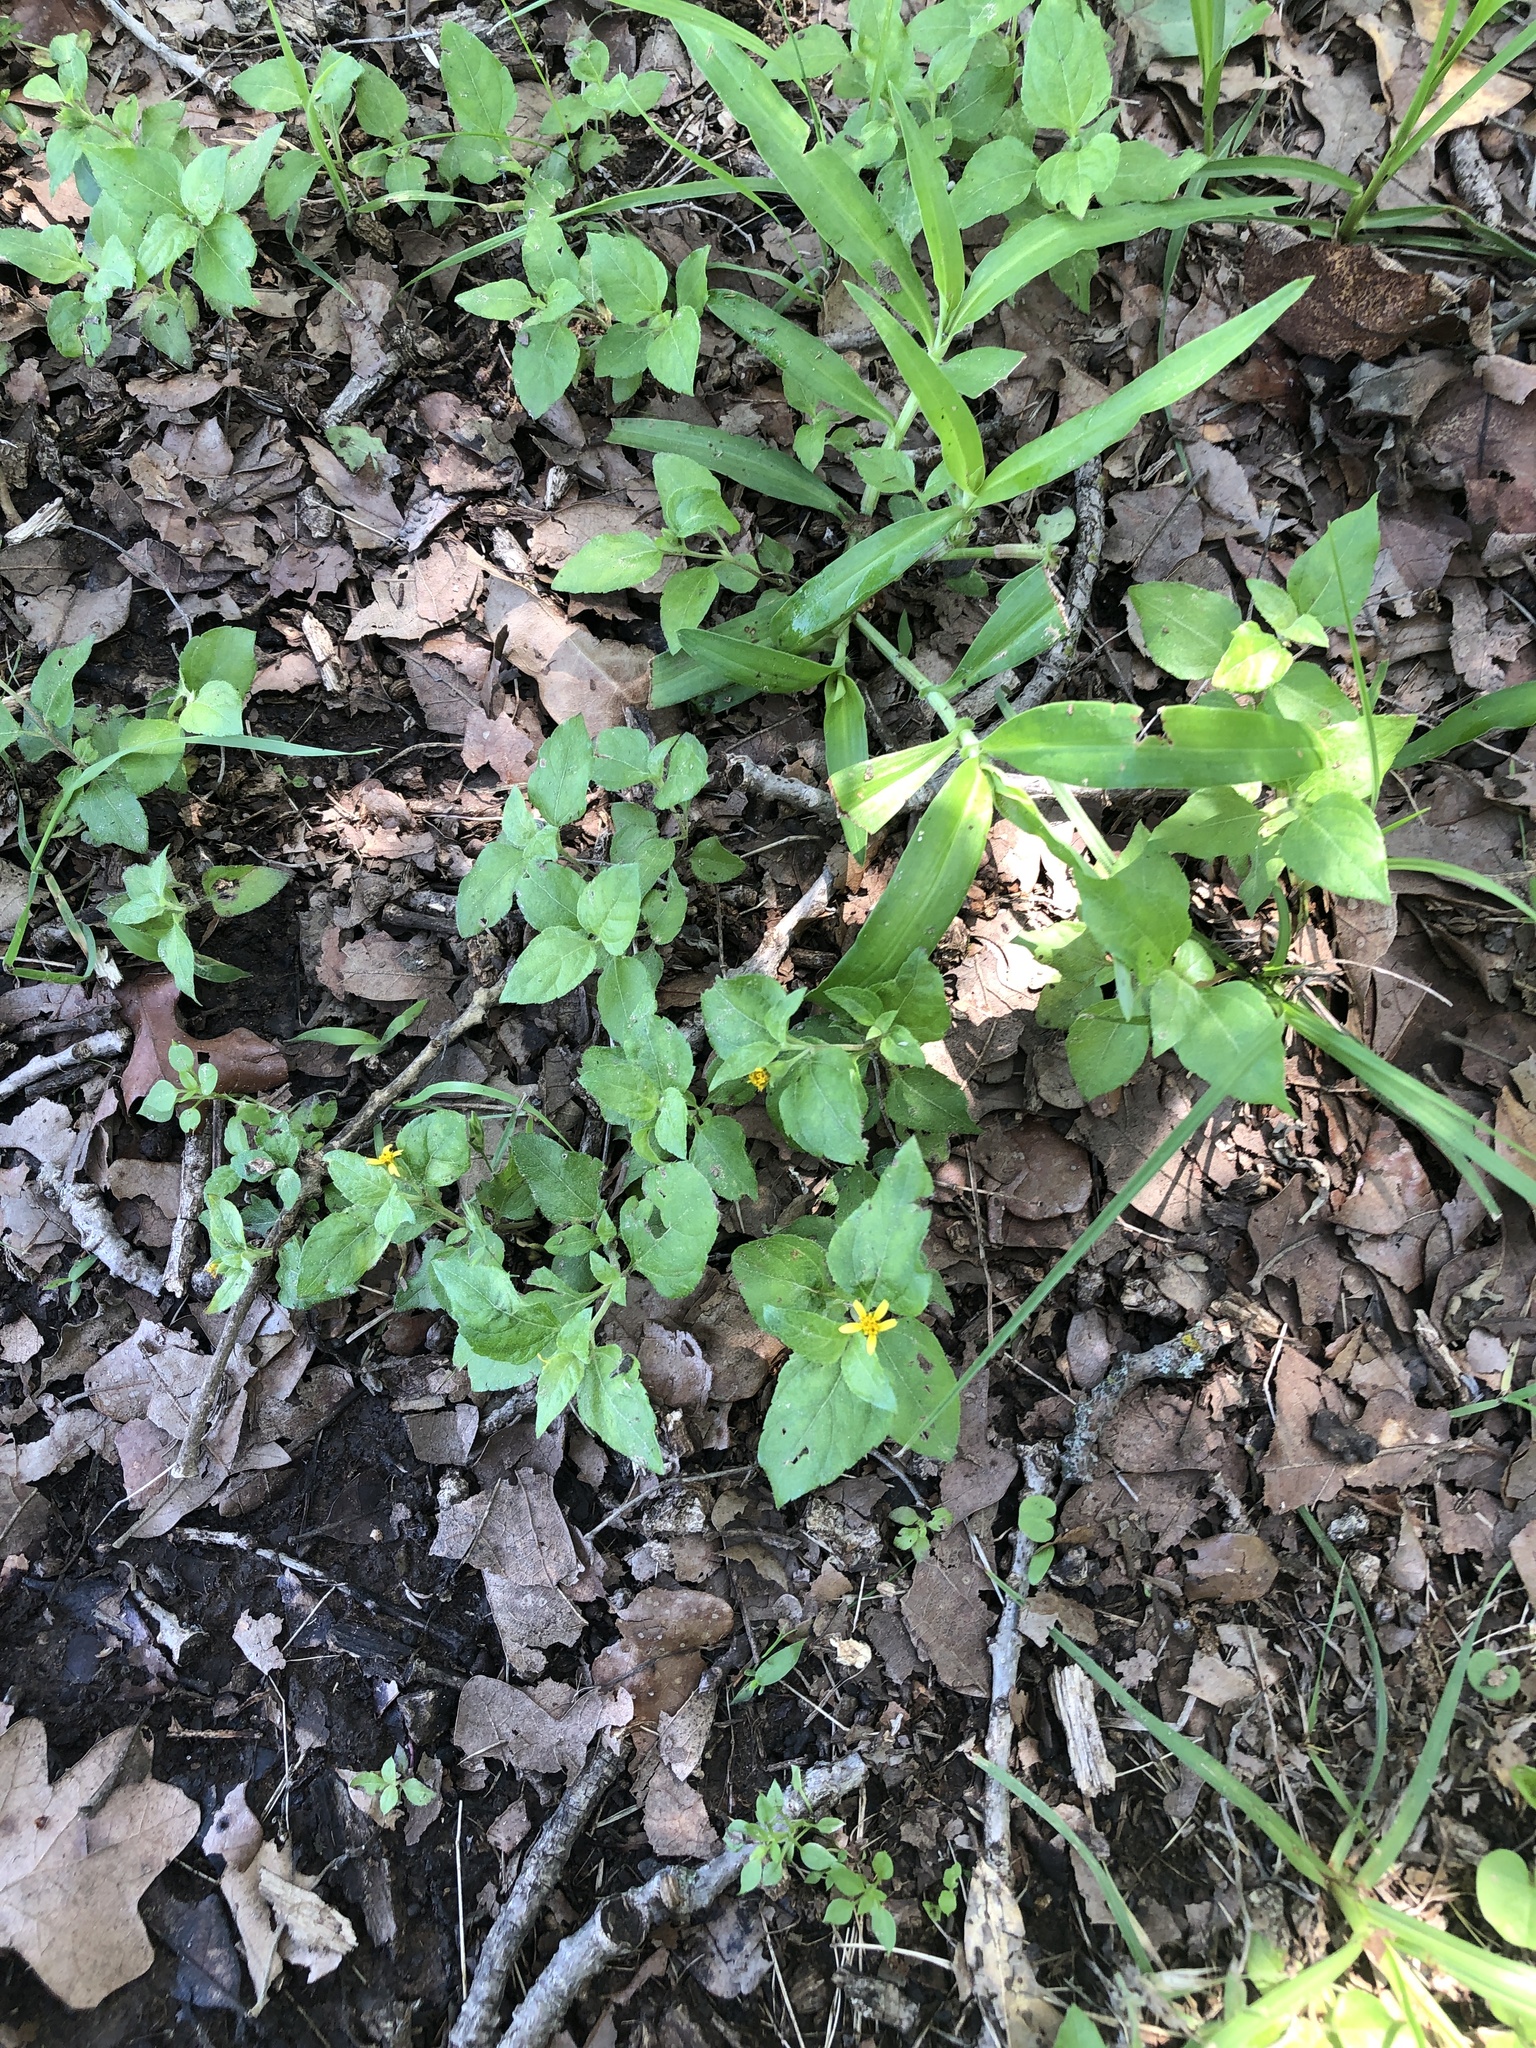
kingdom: Plantae
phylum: Tracheophyta
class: Magnoliopsida
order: Asterales
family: Asteraceae
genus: Calyptocarpus
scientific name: Calyptocarpus vialis
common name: Straggler daisy
